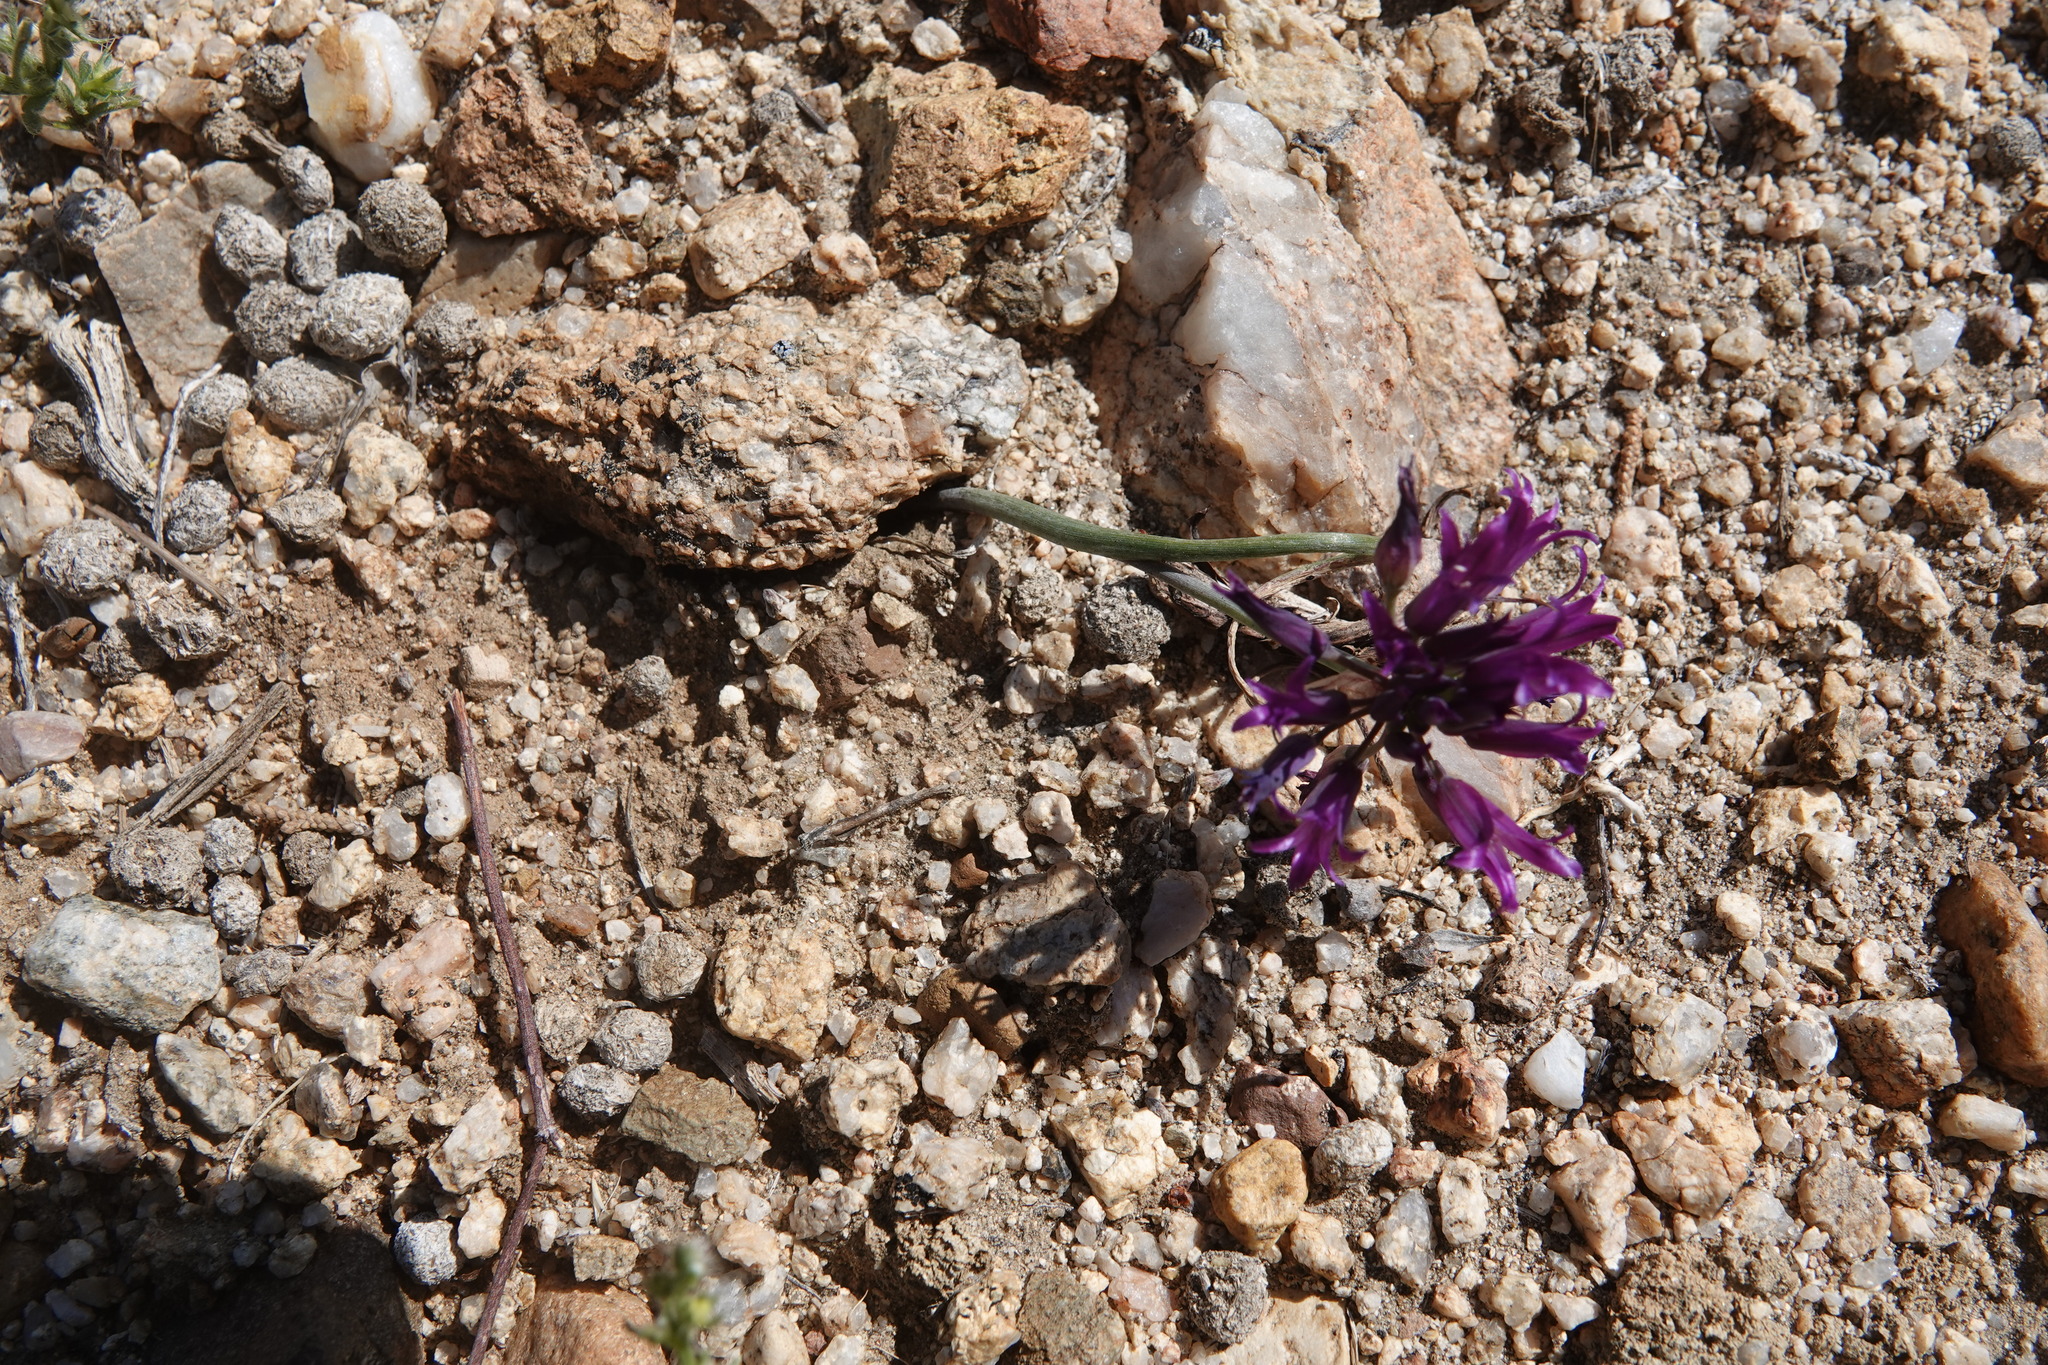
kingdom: Plantae
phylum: Tracheophyta
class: Liliopsida
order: Asparagales
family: Amaryllidaceae
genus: Allium
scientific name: Allium fimbriatum
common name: Fringed onion
